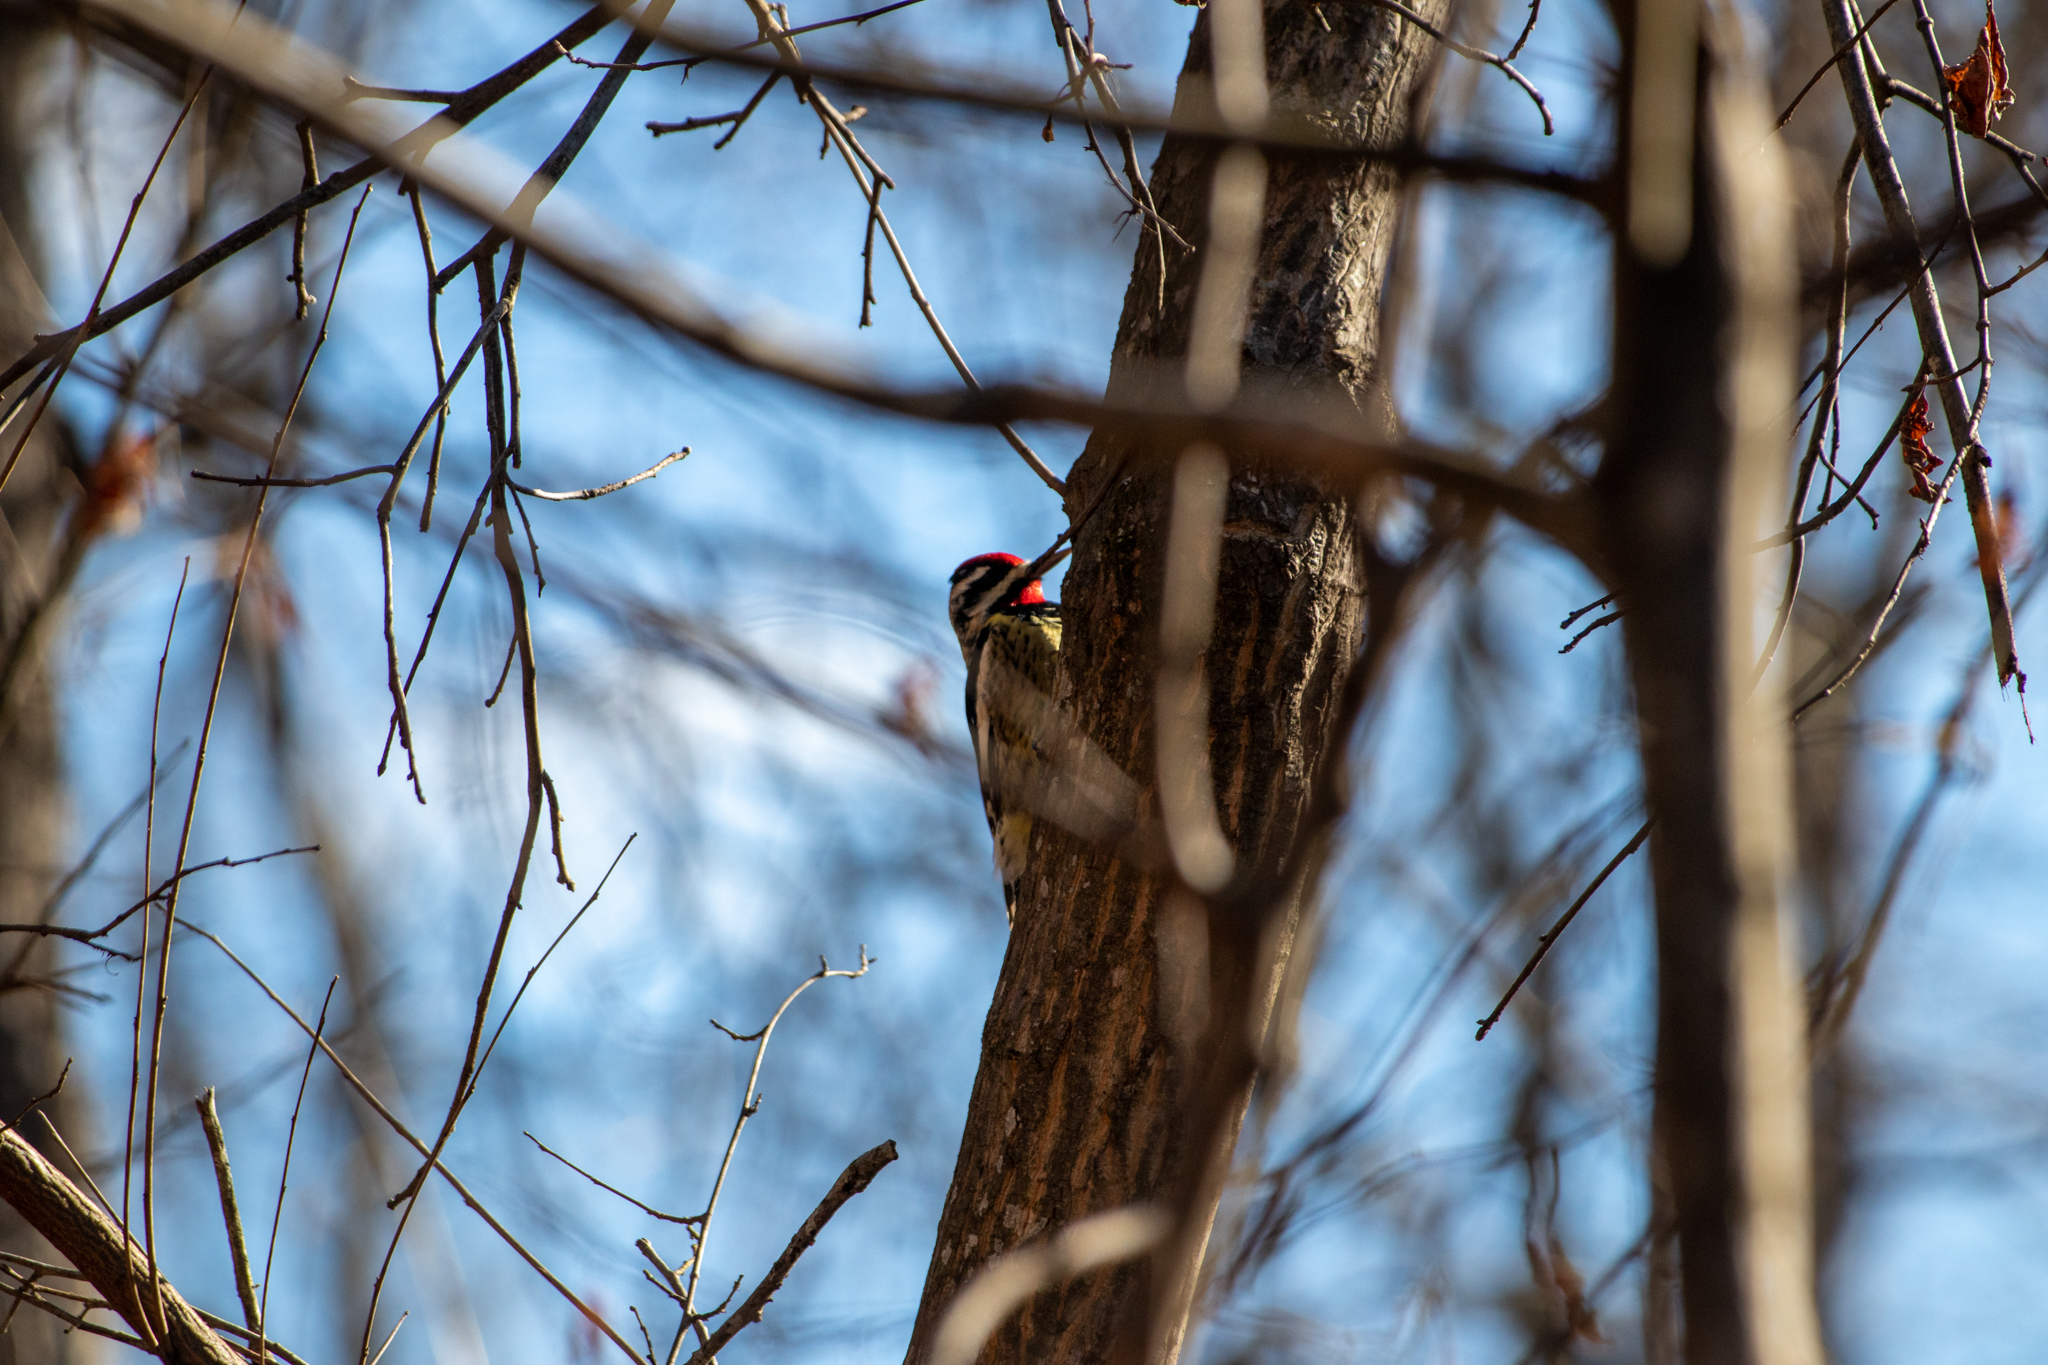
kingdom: Animalia
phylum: Chordata
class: Aves
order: Piciformes
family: Picidae
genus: Sphyrapicus
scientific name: Sphyrapicus varius
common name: Yellow-bellied sapsucker
